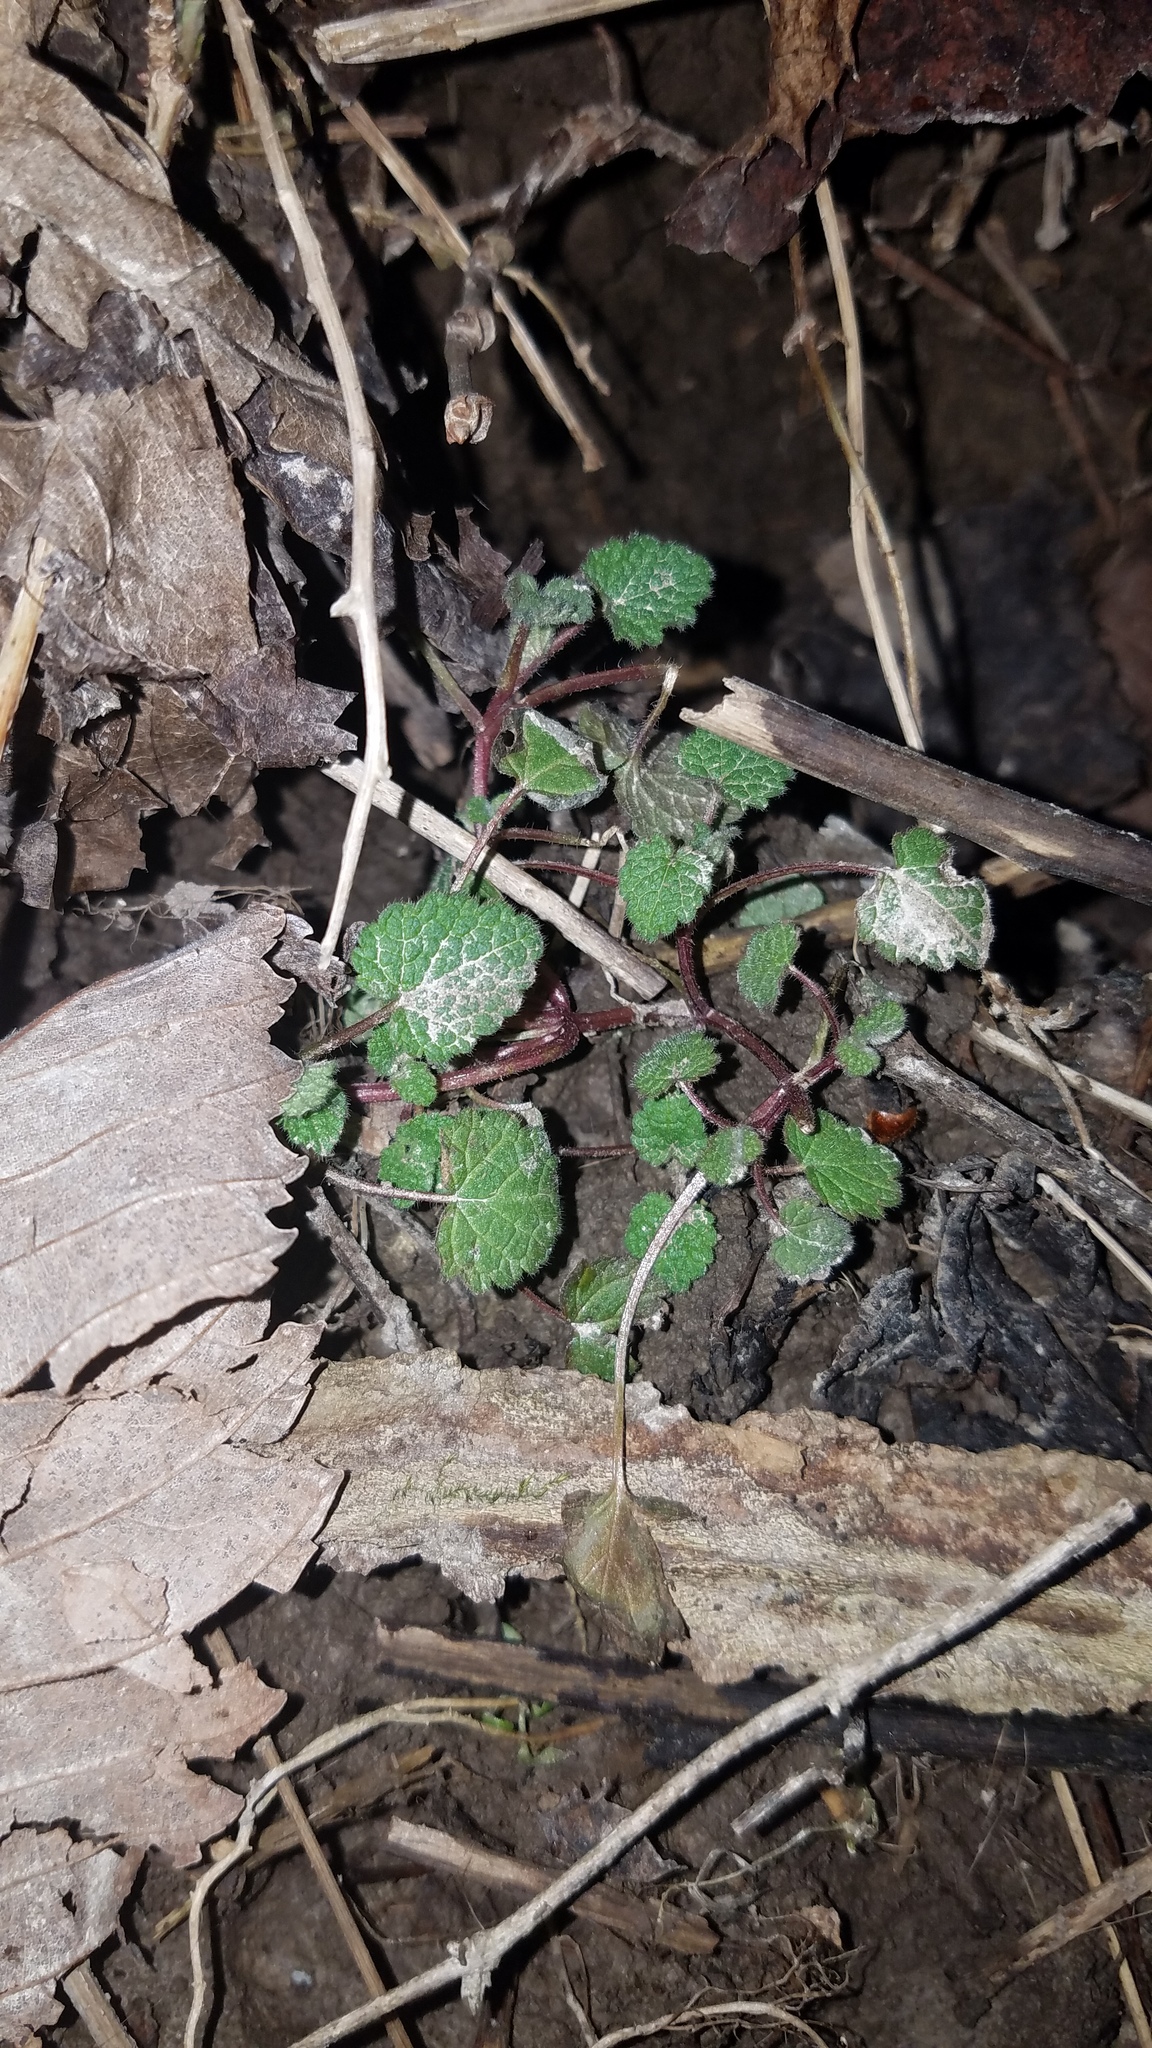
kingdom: Plantae
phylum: Tracheophyta
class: Magnoliopsida
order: Lamiales
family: Lamiaceae
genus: Lamium
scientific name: Lamium purpureum
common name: Red dead-nettle
